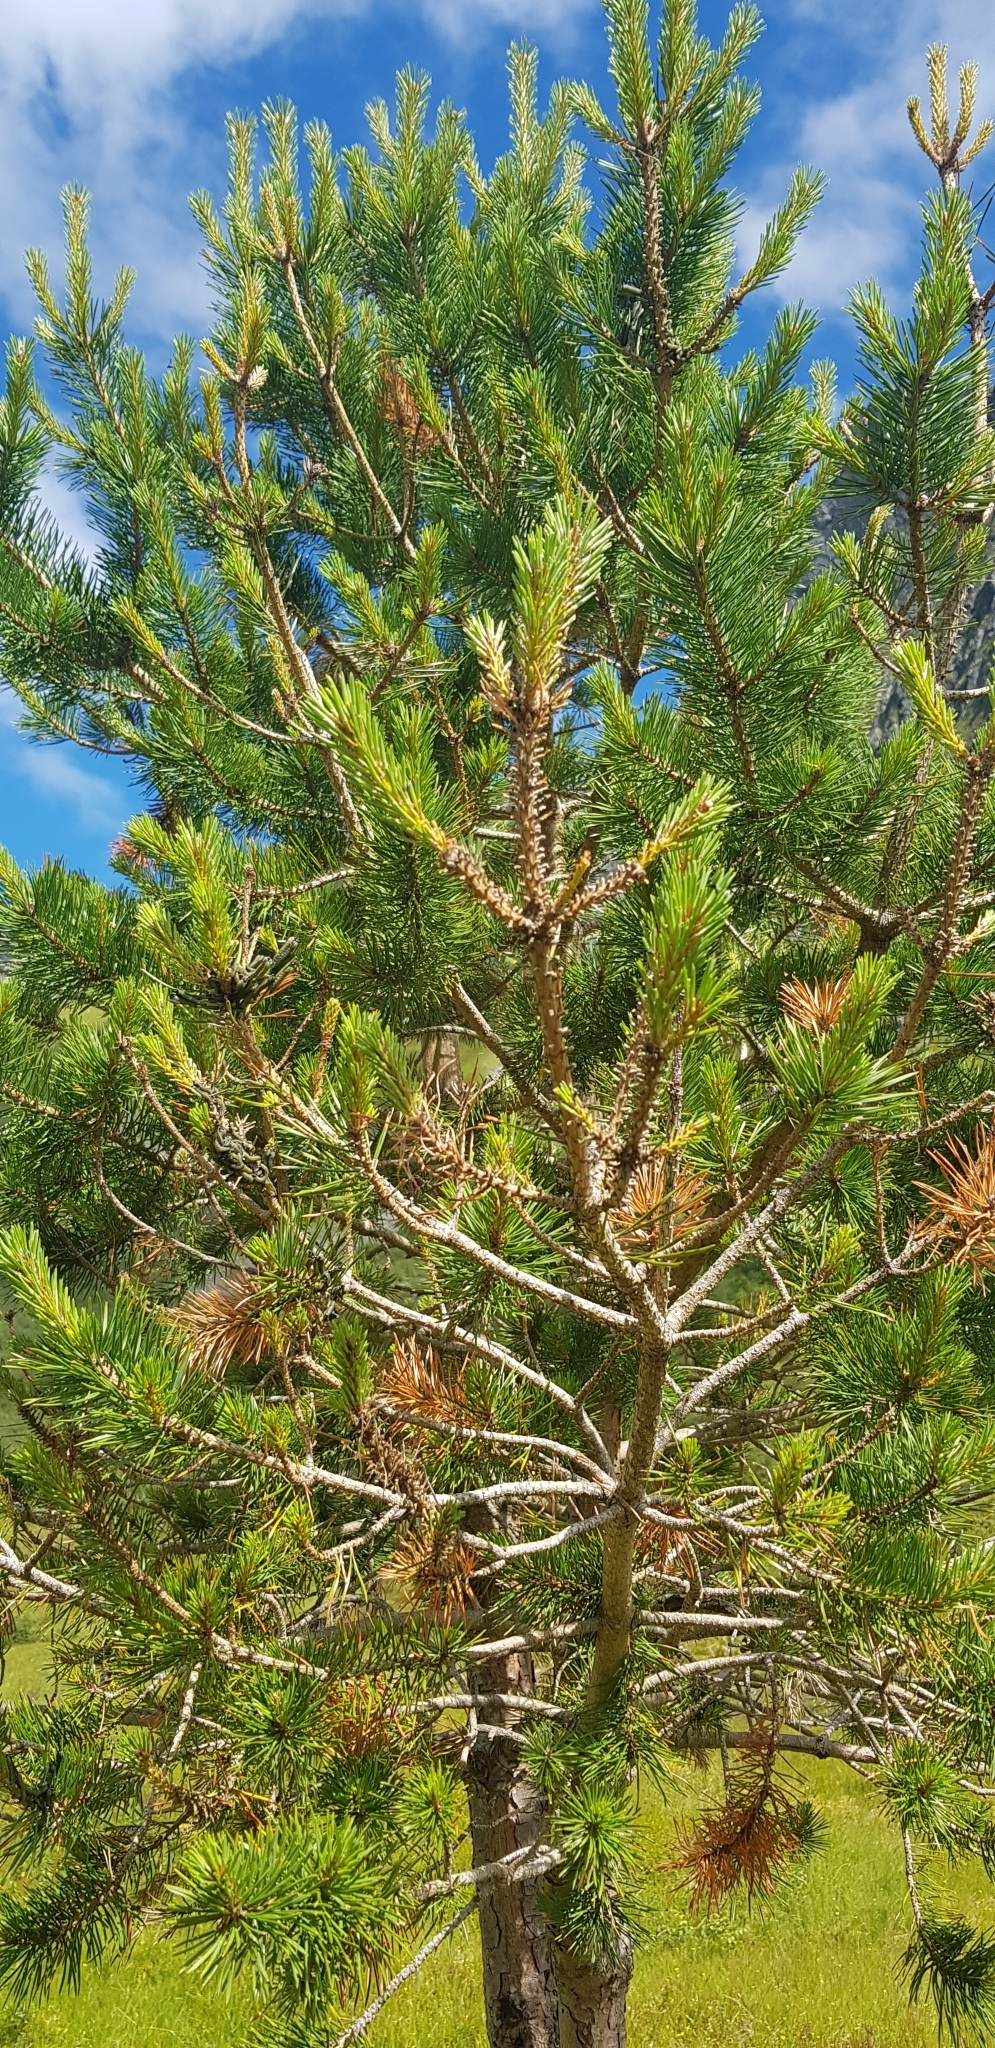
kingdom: Plantae
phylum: Tracheophyta
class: Pinopsida
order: Pinales
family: Pinaceae
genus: Pinus
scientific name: Pinus sylvestris
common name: Scots pine
